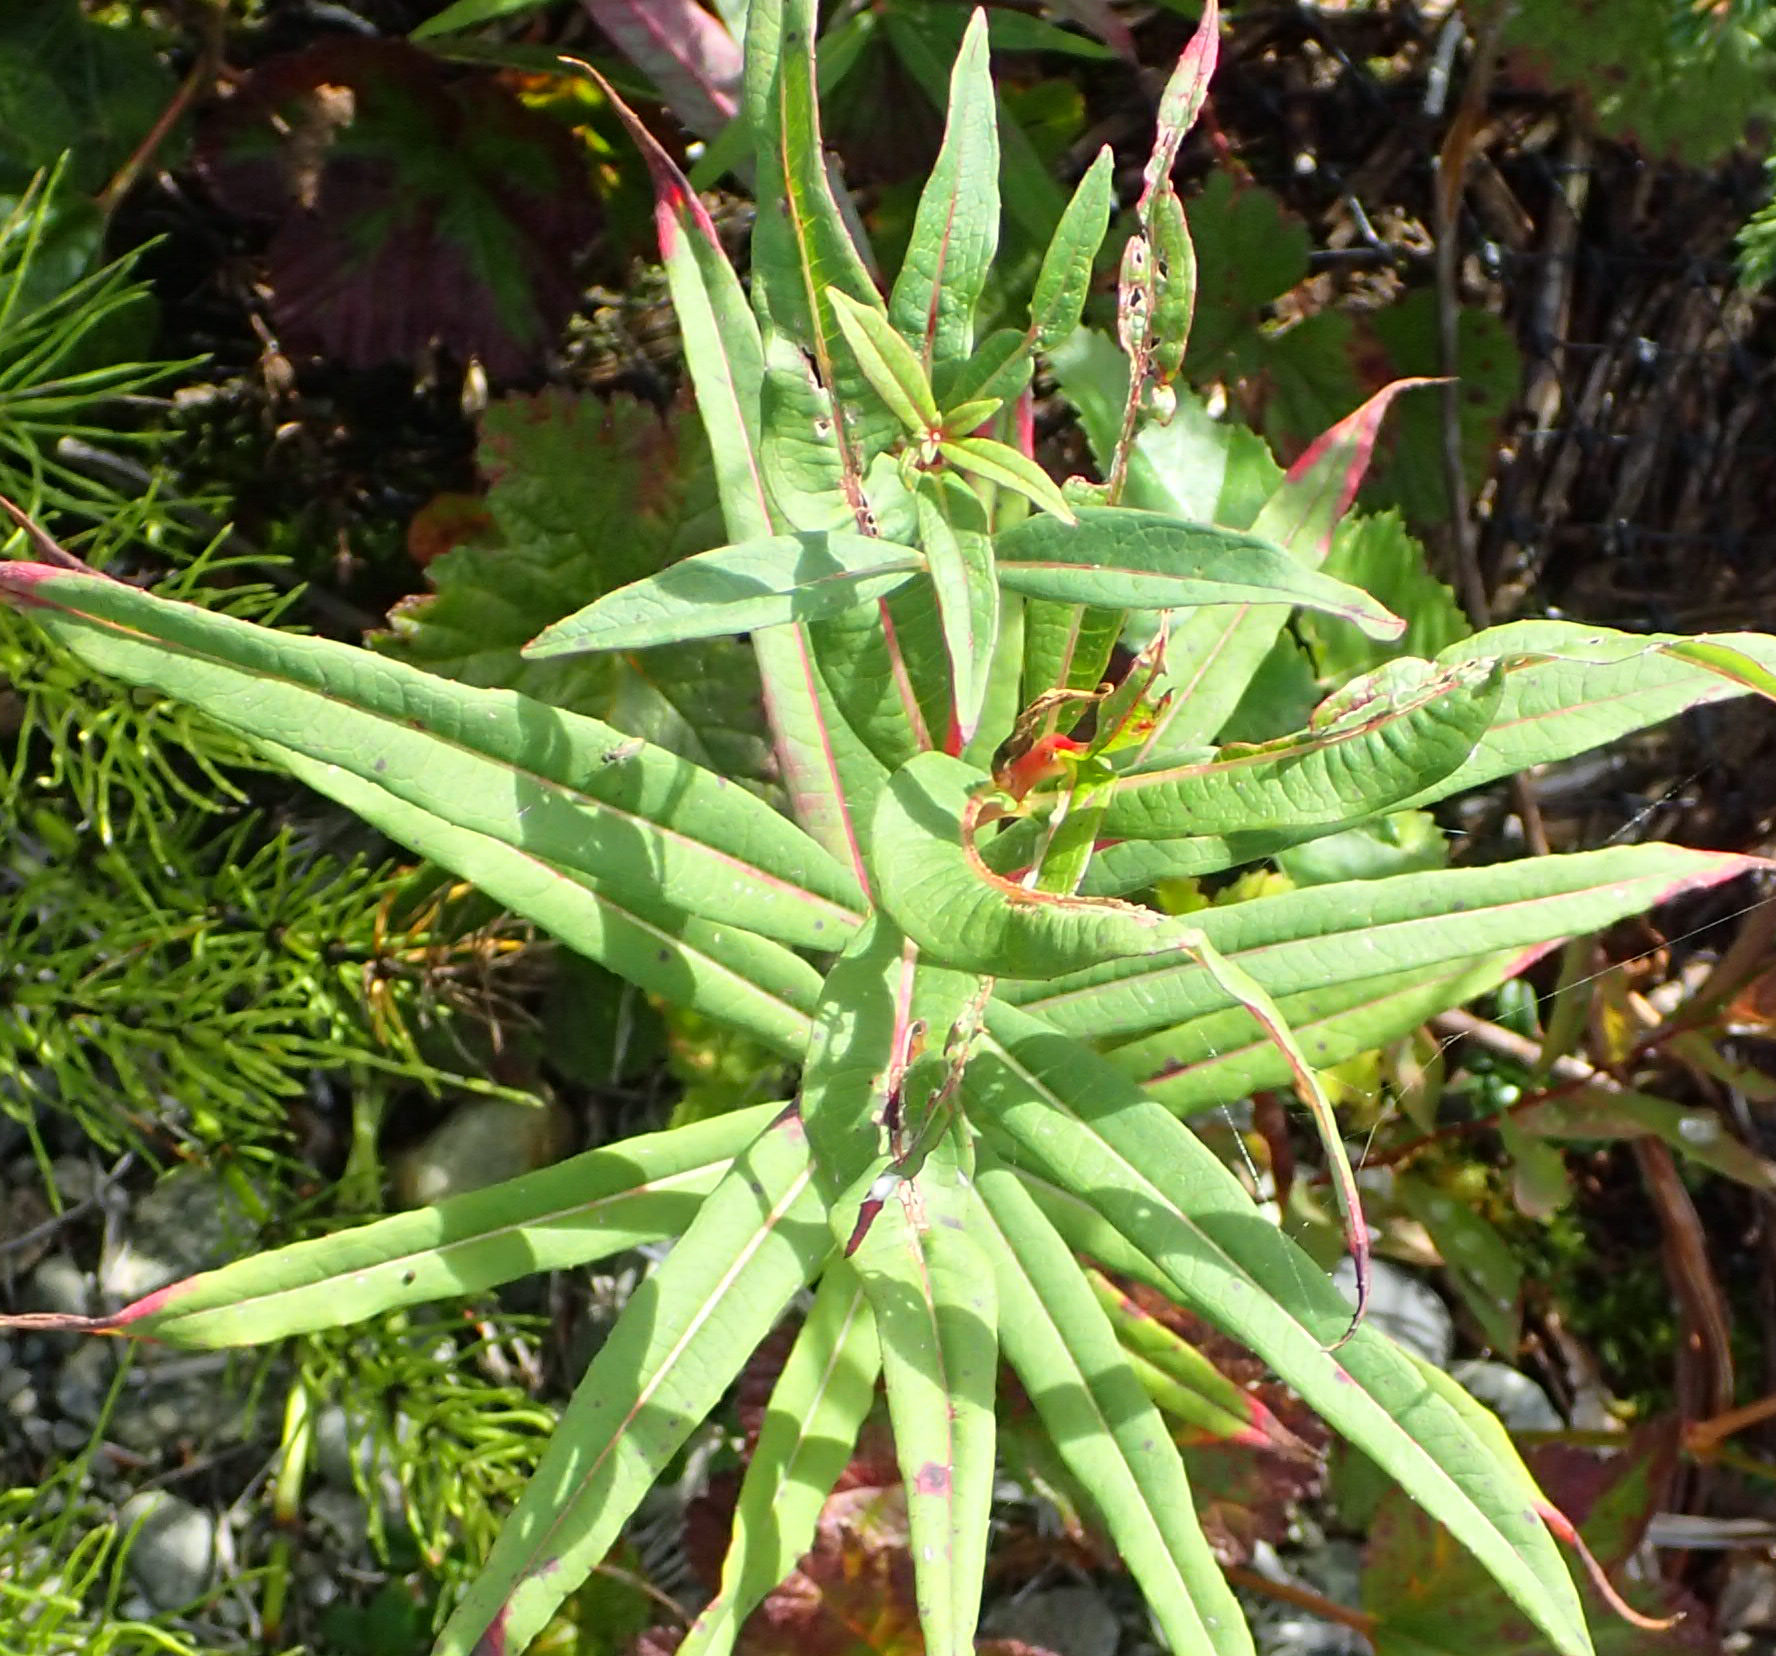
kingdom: Plantae
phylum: Tracheophyta
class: Magnoliopsida
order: Myrtales
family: Onagraceae
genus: Chamaenerion
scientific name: Chamaenerion angustifolium
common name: Fireweed
